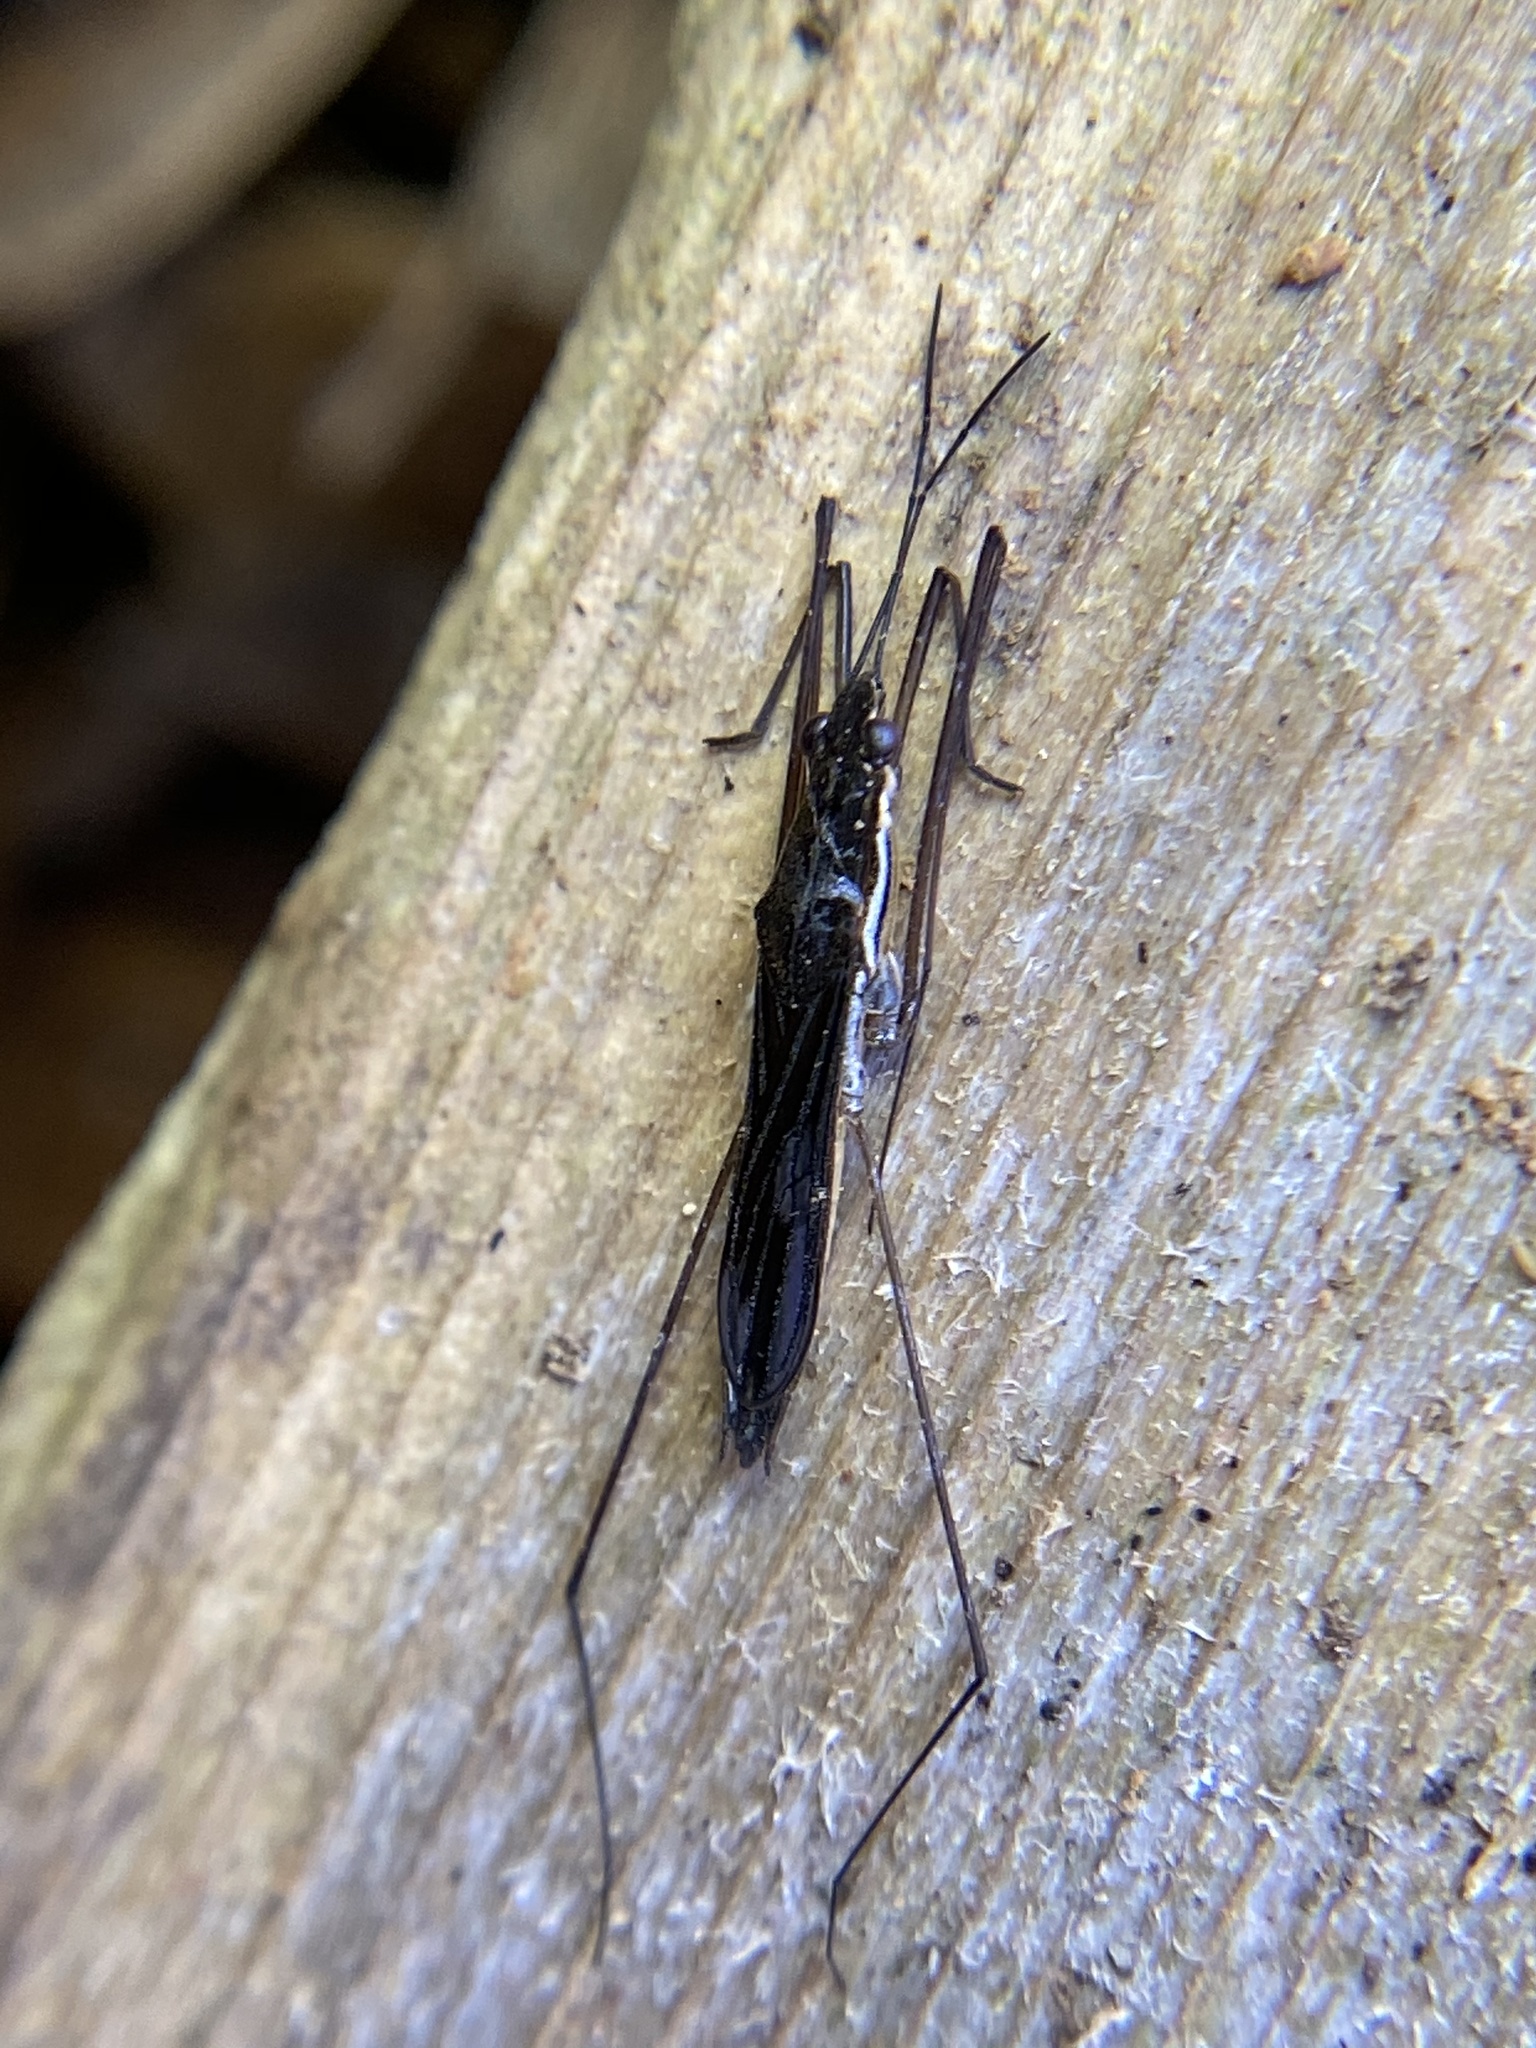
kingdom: Animalia
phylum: Arthropoda
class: Insecta
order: Hemiptera
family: Gerridae
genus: Limnoporus
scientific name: Limnoporus canaliculatus
